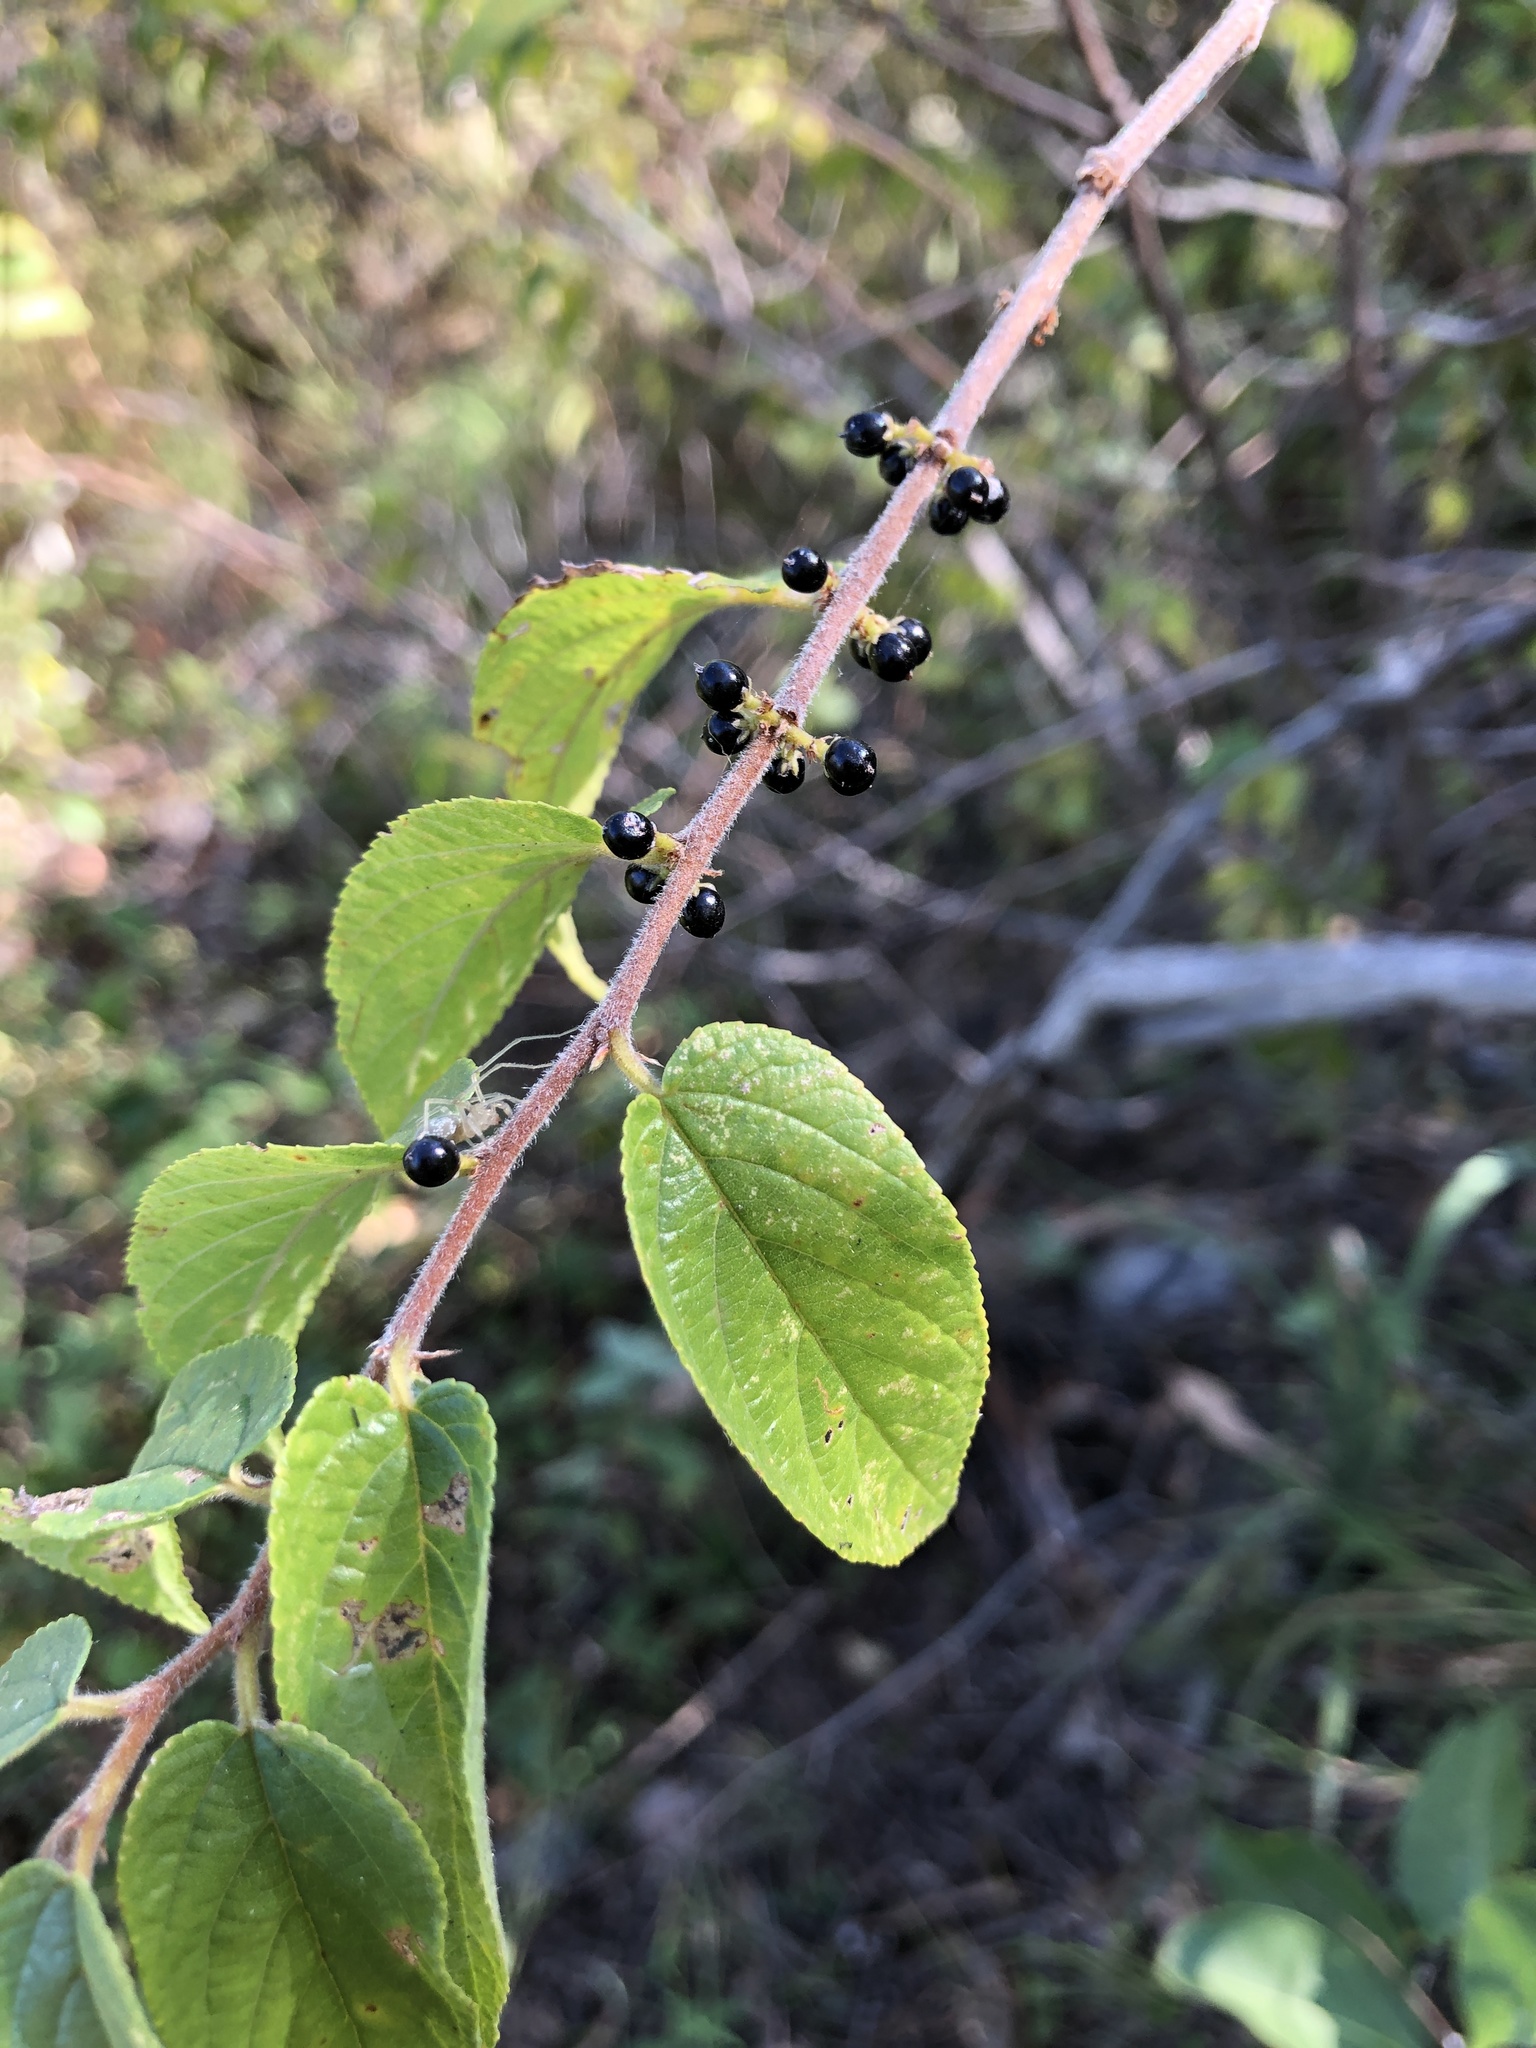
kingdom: Plantae
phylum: Tracheophyta
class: Magnoliopsida
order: Rosales
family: Cannabaceae
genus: Trema
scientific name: Trema tomentosum
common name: Peach-leaf-poisonbush
